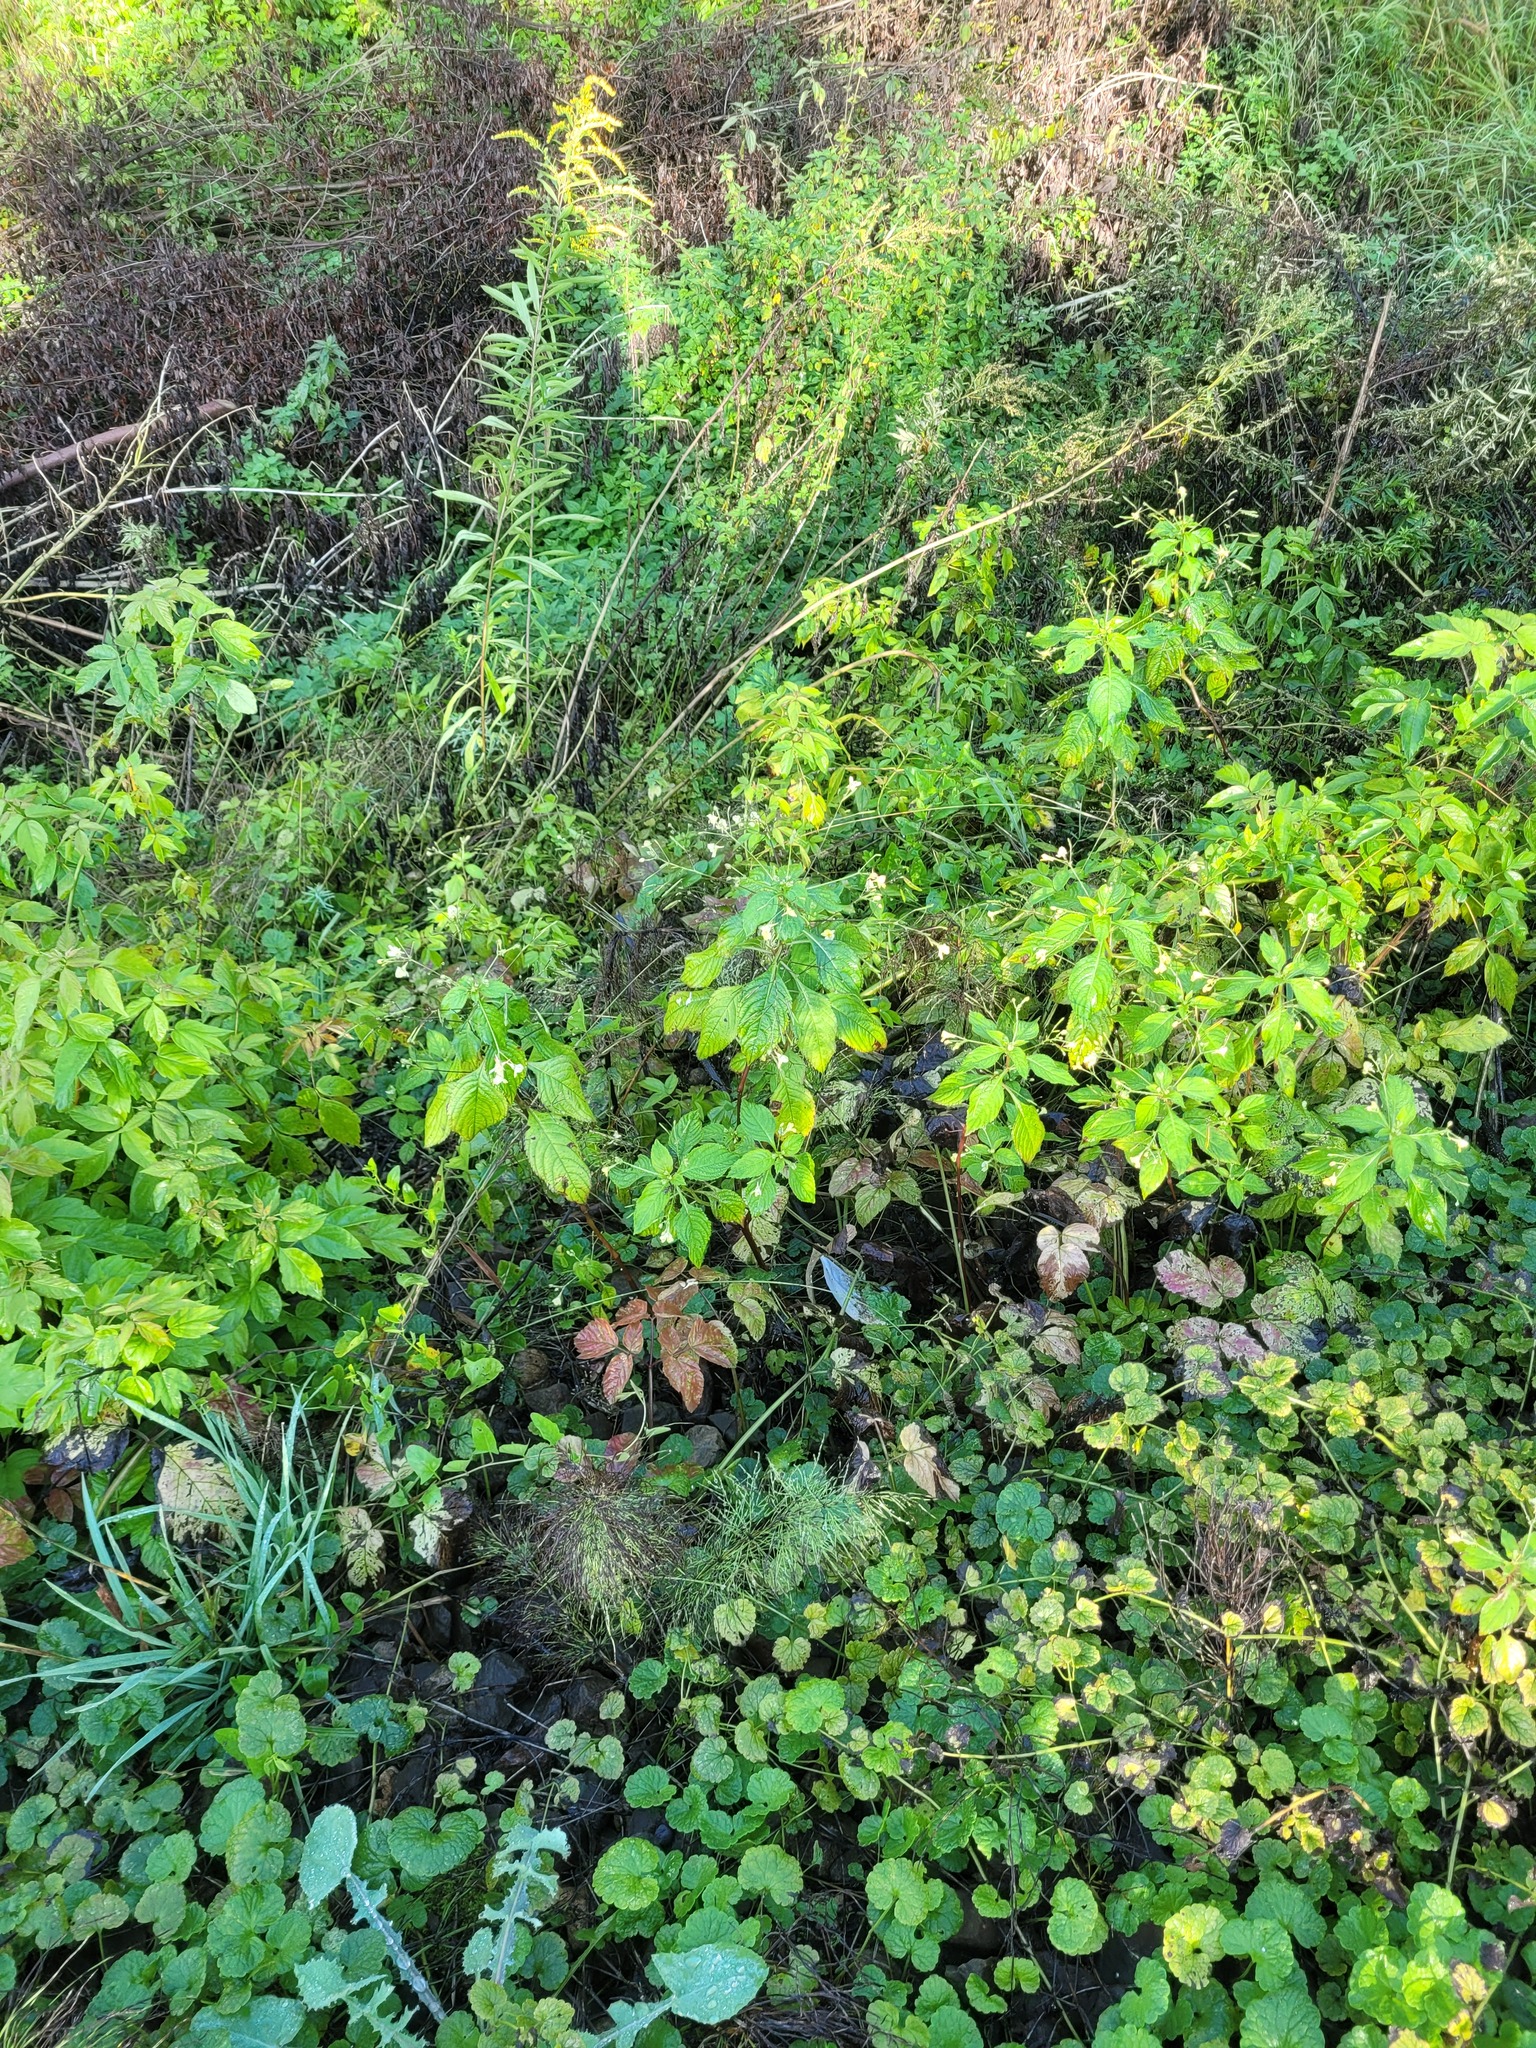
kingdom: Plantae
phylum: Tracheophyta
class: Magnoliopsida
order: Ericales
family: Balsaminaceae
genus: Impatiens
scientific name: Impatiens parviflora
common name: Small balsam
